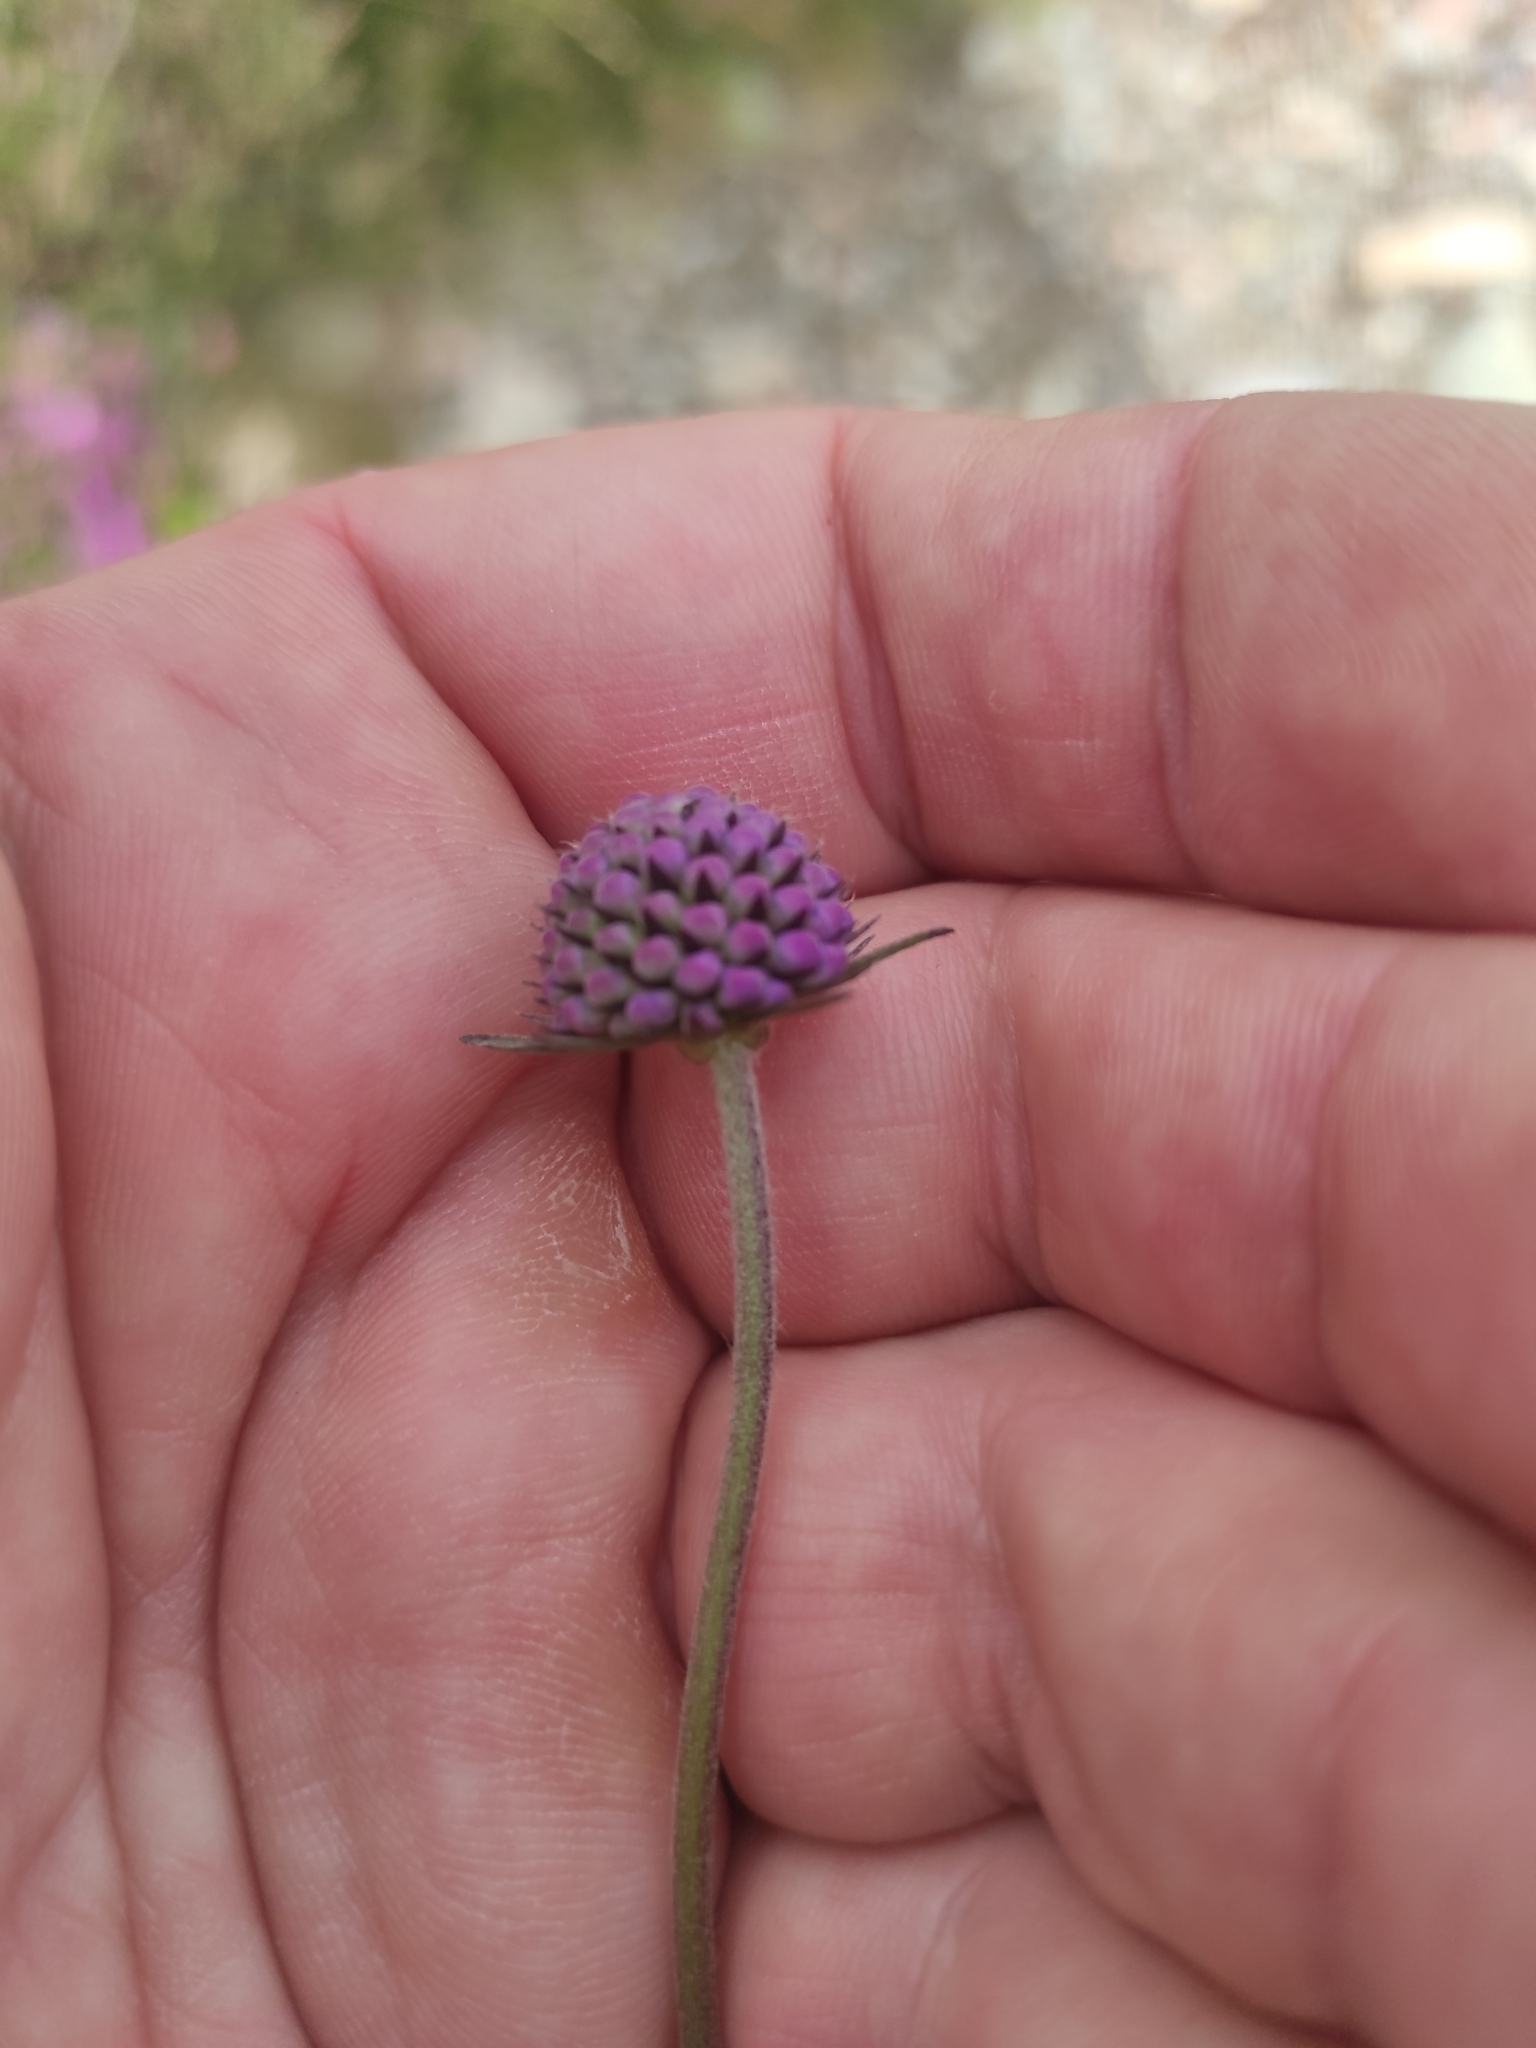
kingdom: Plantae
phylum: Tracheophyta
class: Magnoliopsida
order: Dipsacales
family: Caprifoliaceae
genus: Succisa
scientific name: Succisa pratensis
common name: Devil's-bit
